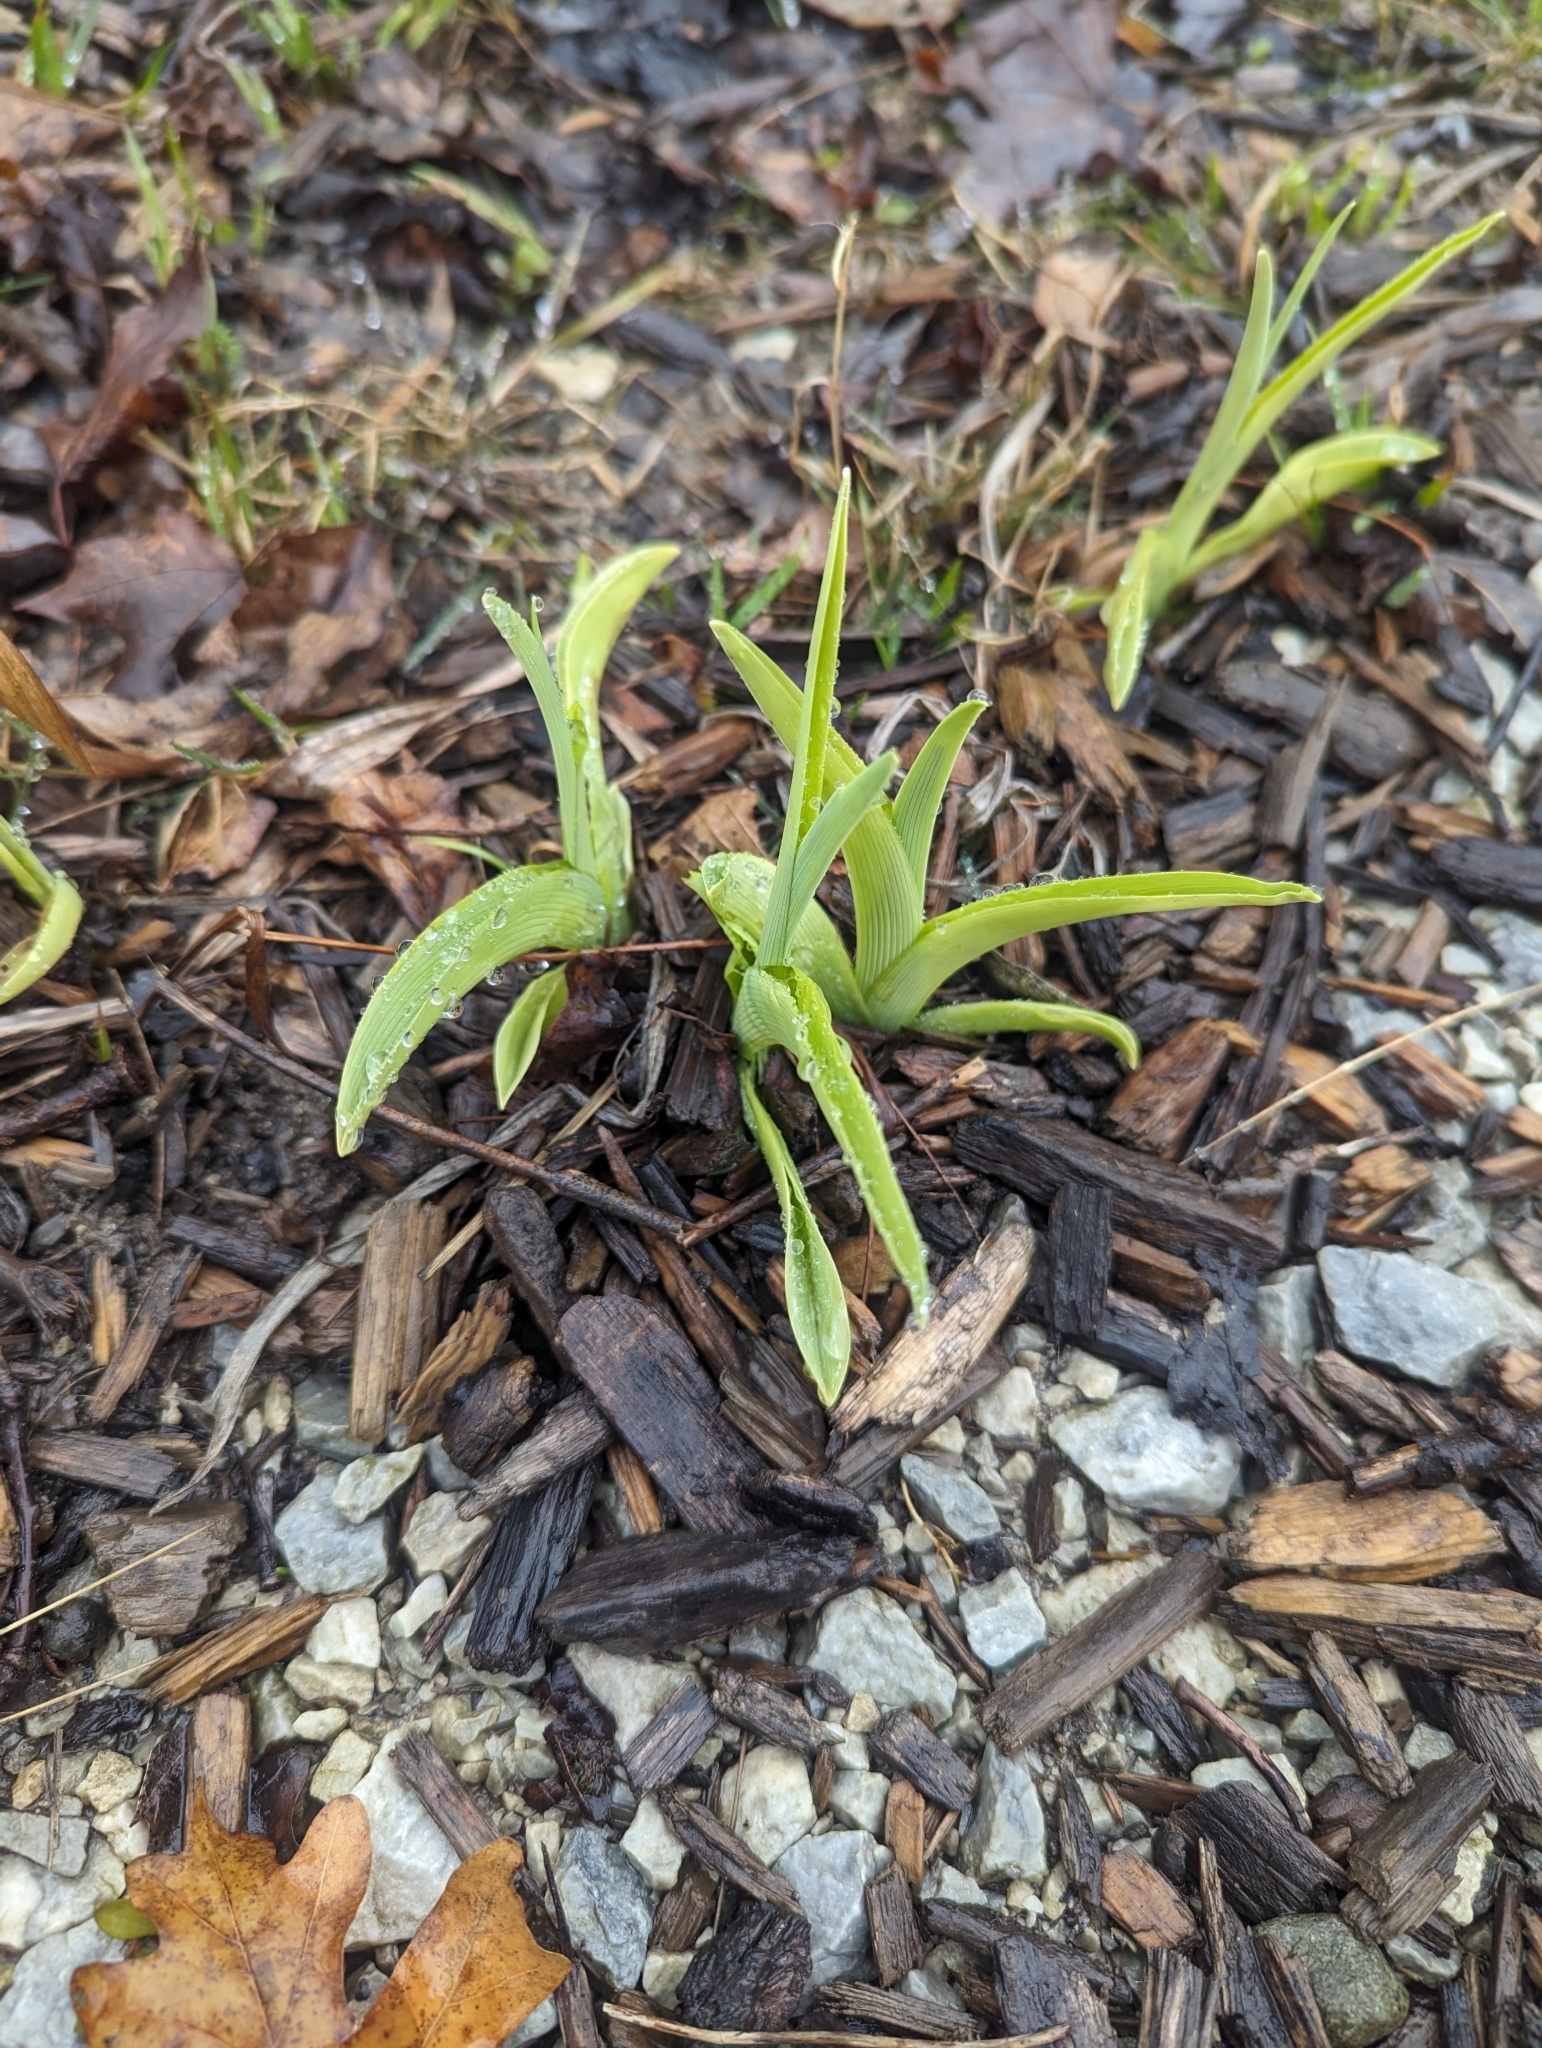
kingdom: Plantae
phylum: Tracheophyta
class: Liliopsida
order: Asparagales
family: Asphodelaceae
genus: Hemerocallis
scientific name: Hemerocallis fulva
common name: Orange day-lily
